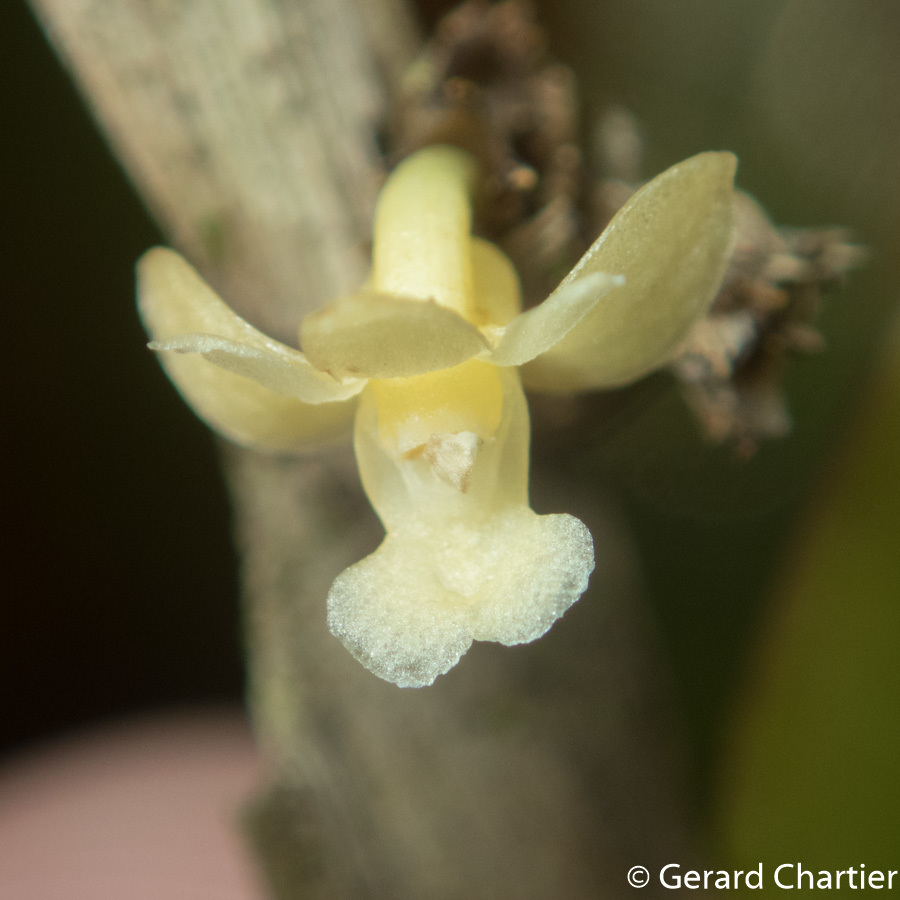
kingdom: Plantae
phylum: Tracheophyta
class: Liliopsida
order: Asparagales
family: Orchidaceae
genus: Dendrobium
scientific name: Dendrobium aloifolium
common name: Aloe-like dendrobium
